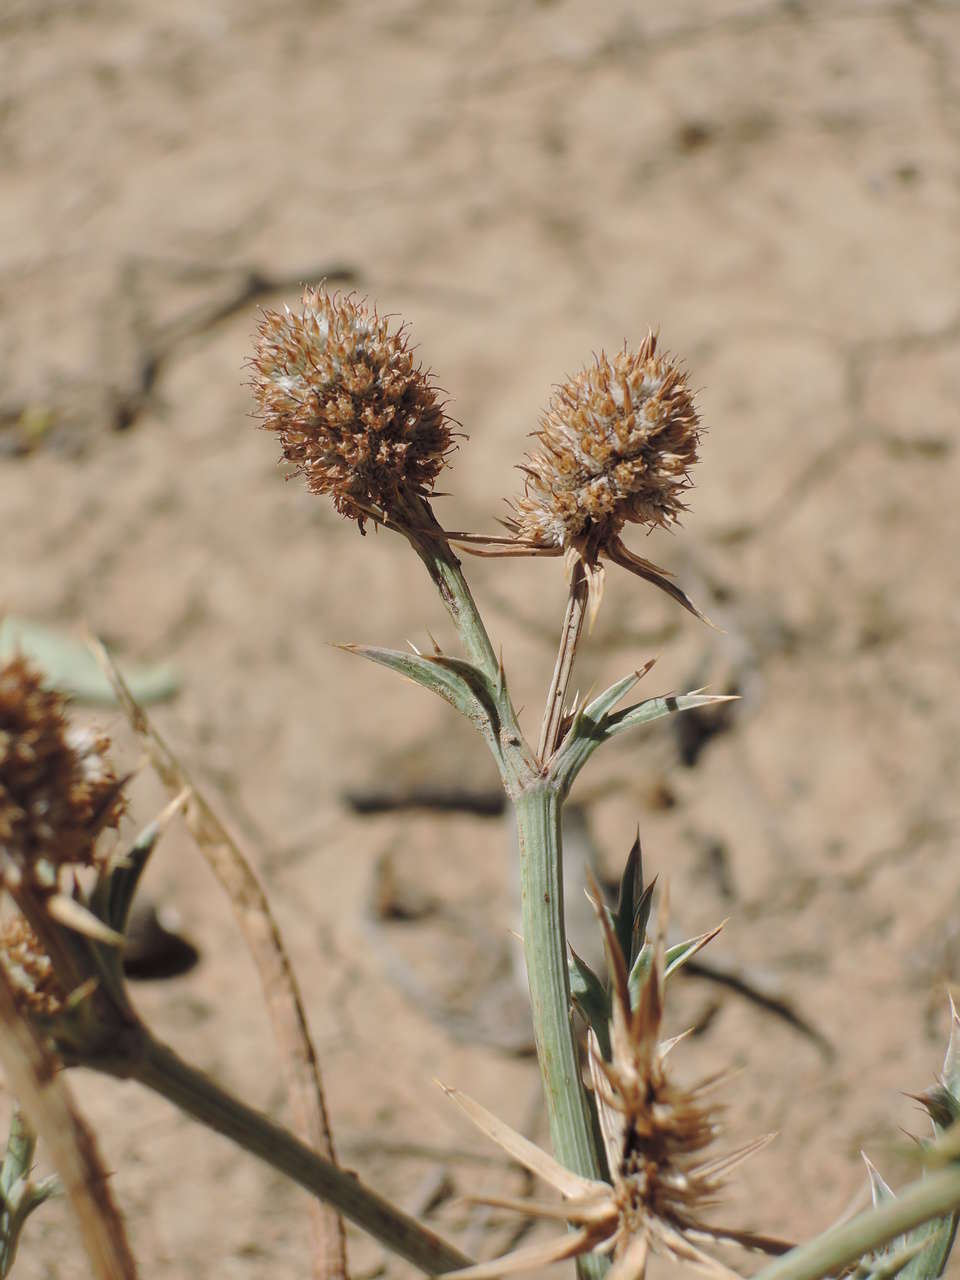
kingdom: Plantae
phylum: Tracheophyta
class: Magnoliopsida
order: Apiales
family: Apiaceae
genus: Eryngium
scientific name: Eryngium paludosum
